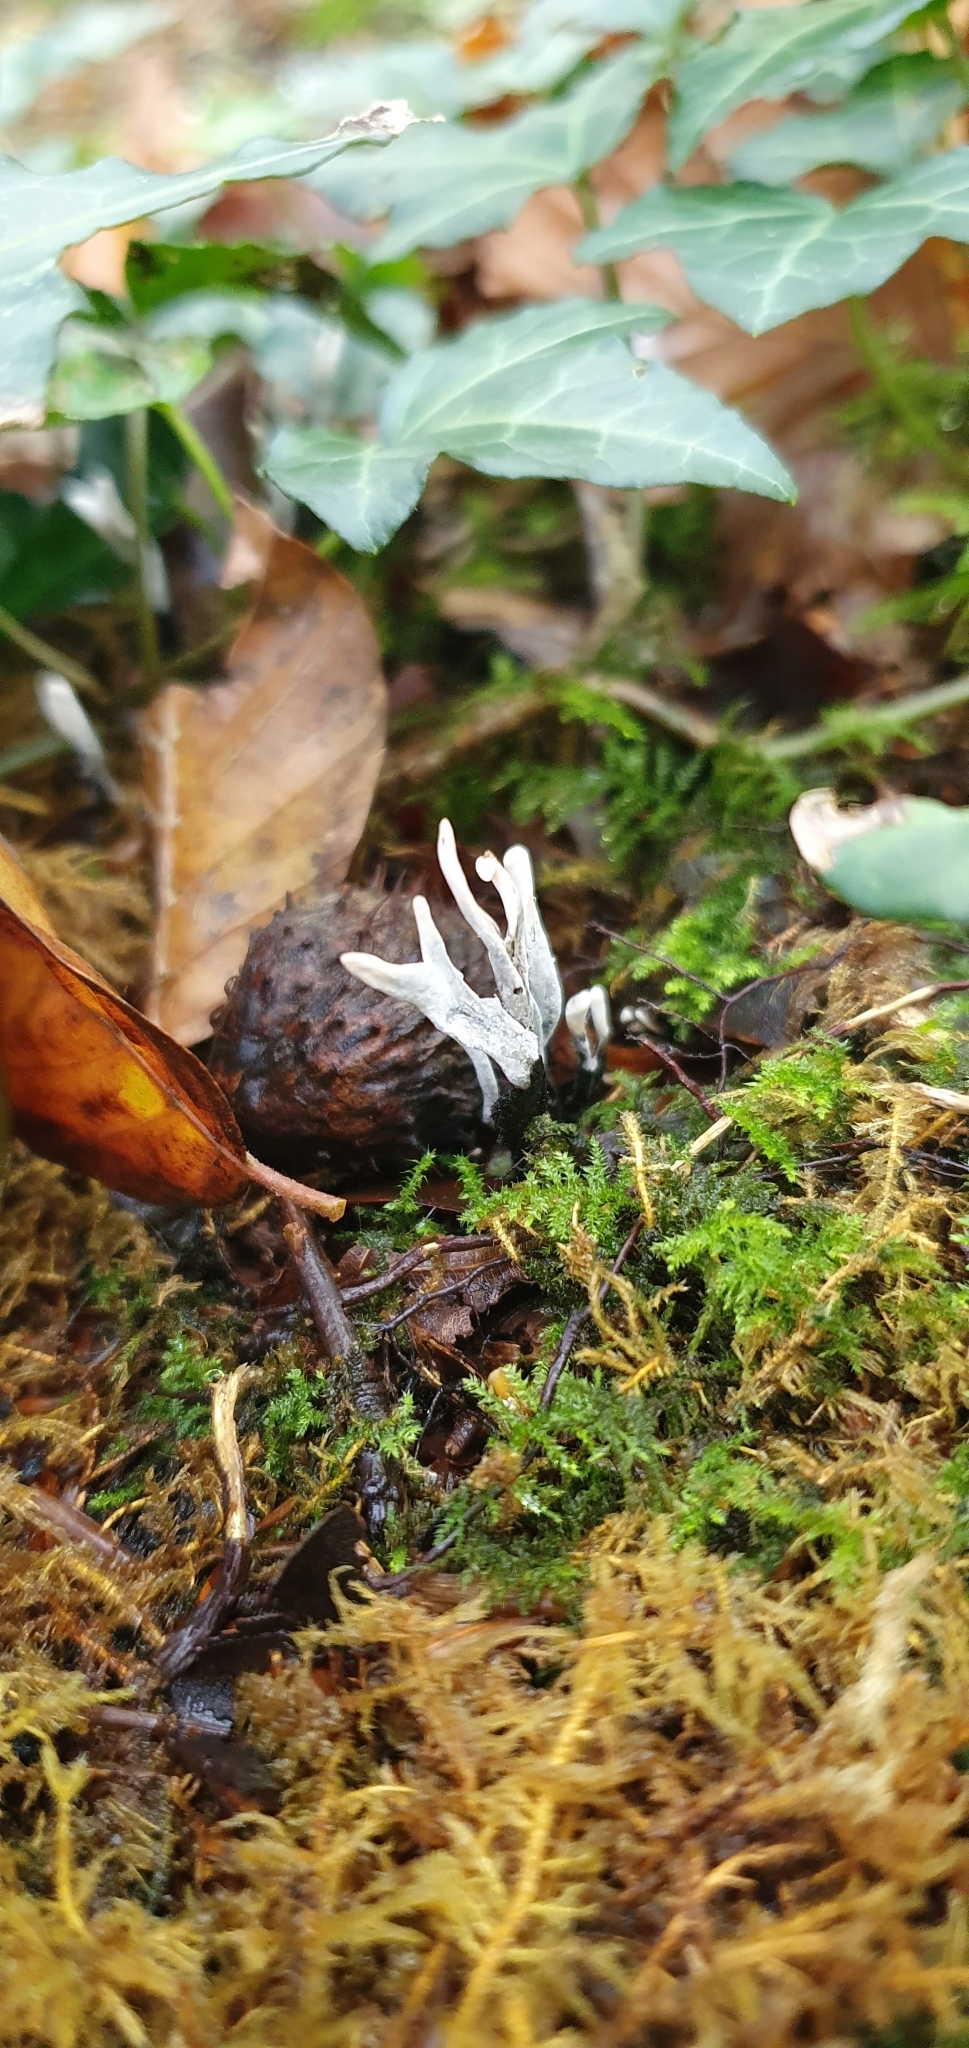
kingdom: Fungi
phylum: Ascomycota
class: Sordariomycetes
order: Xylariales
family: Xylariaceae
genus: Xylaria
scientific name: Xylaria hypoxylon
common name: Candle-snuff fungus
